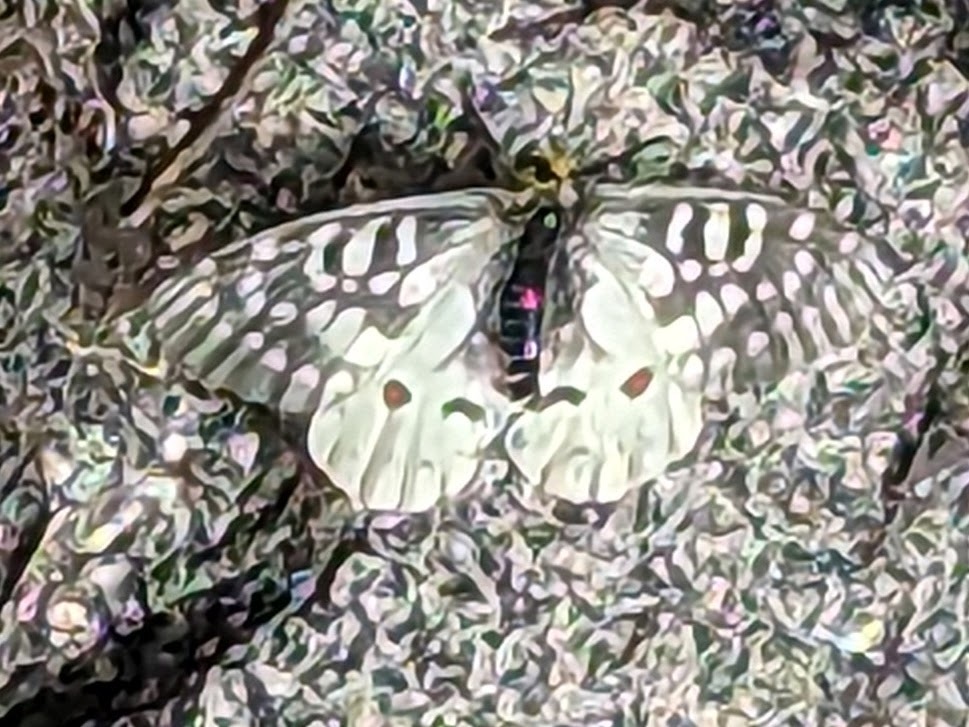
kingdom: Animalia
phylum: Arthropoda
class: Insecta
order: Lepidoptera
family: Papilionidae
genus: Parnassius
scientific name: Parnassius clodius
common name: American apollo
